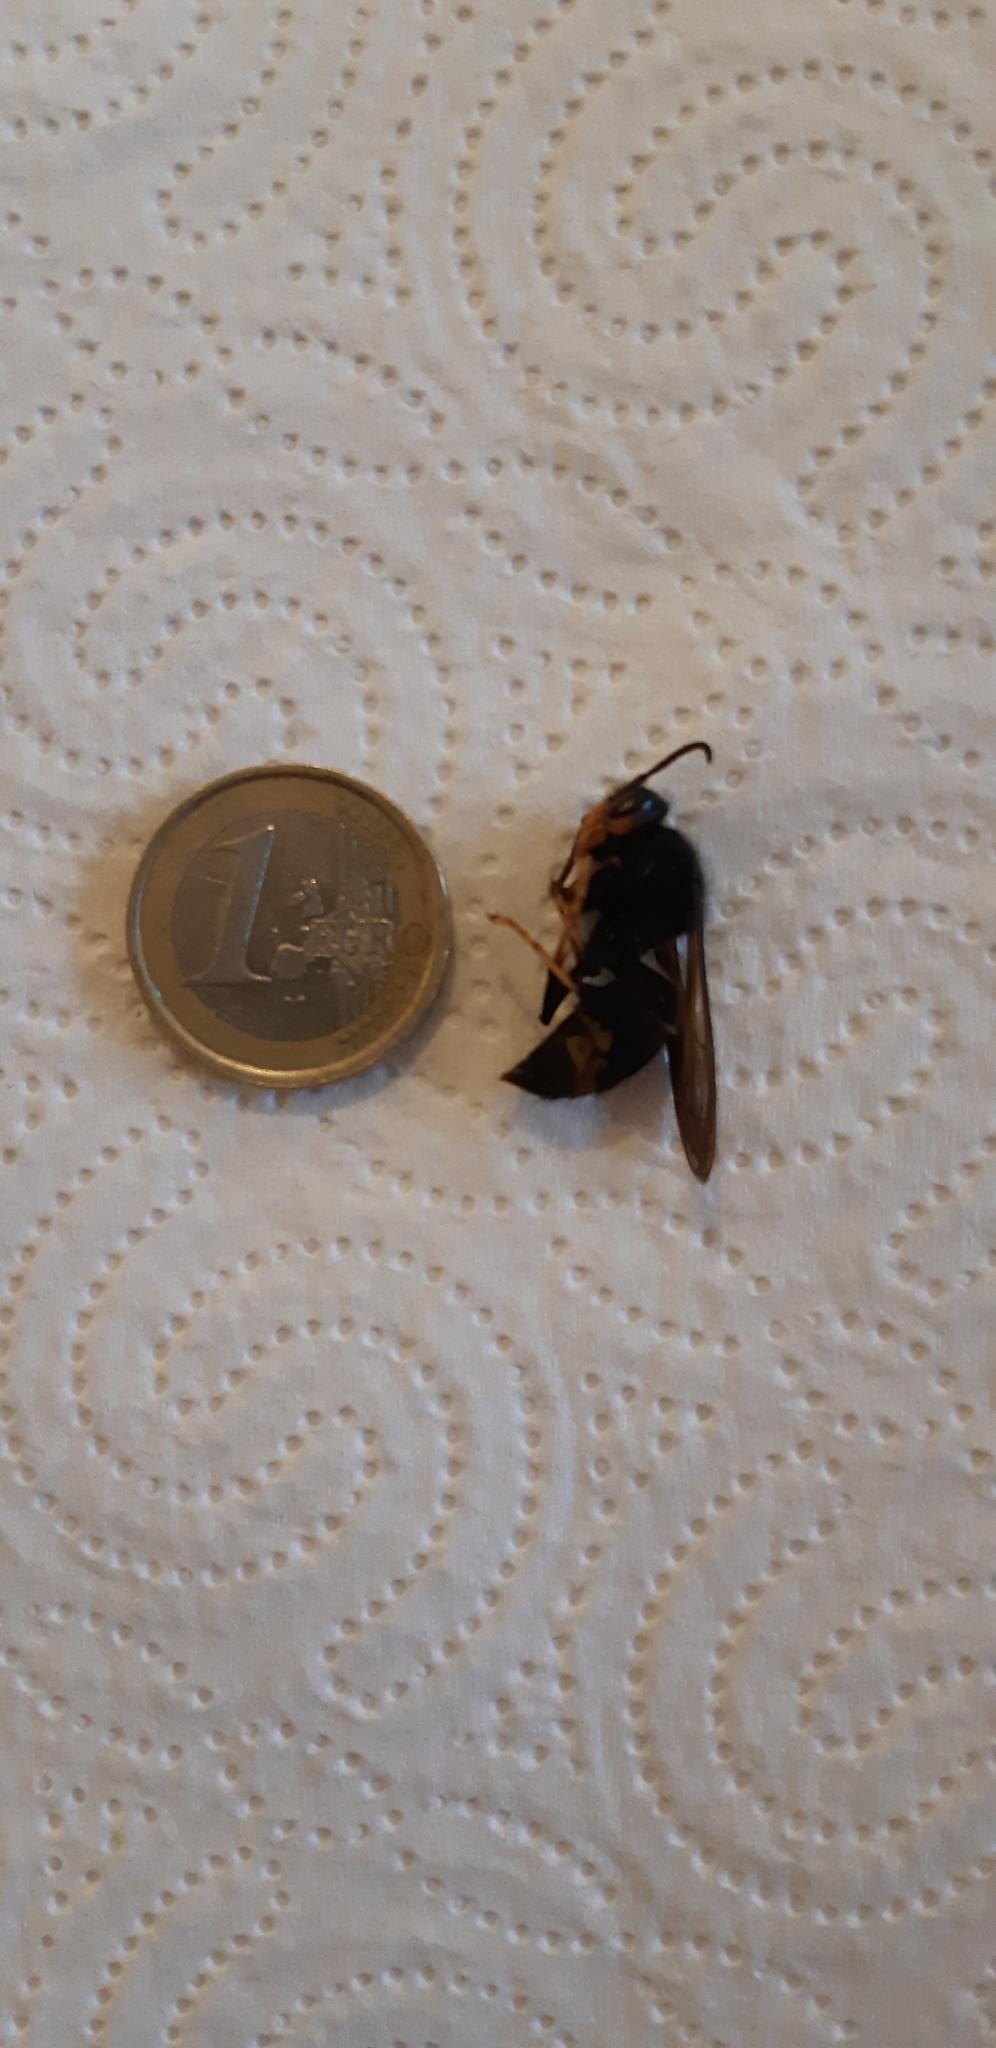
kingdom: Animalia
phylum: Arthropoda
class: Insecta
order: Hymenoptera
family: Vespidae
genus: Vespa
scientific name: Vespa velutina
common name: Asian hornet
